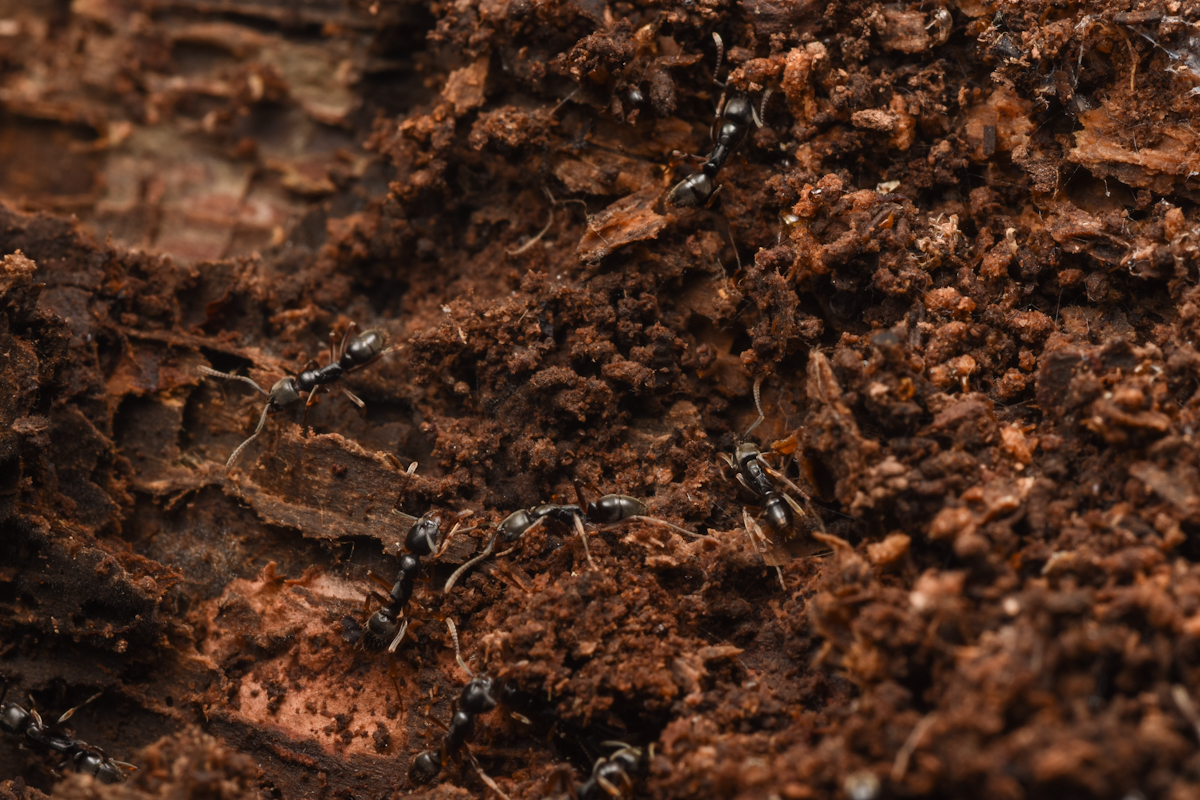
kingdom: Animalia
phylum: Arthropoda
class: Insecta
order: Hymenoptera
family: Formicidae
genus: Pachycondyla
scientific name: Pachycondyla chinensis
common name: Asian needle ant
